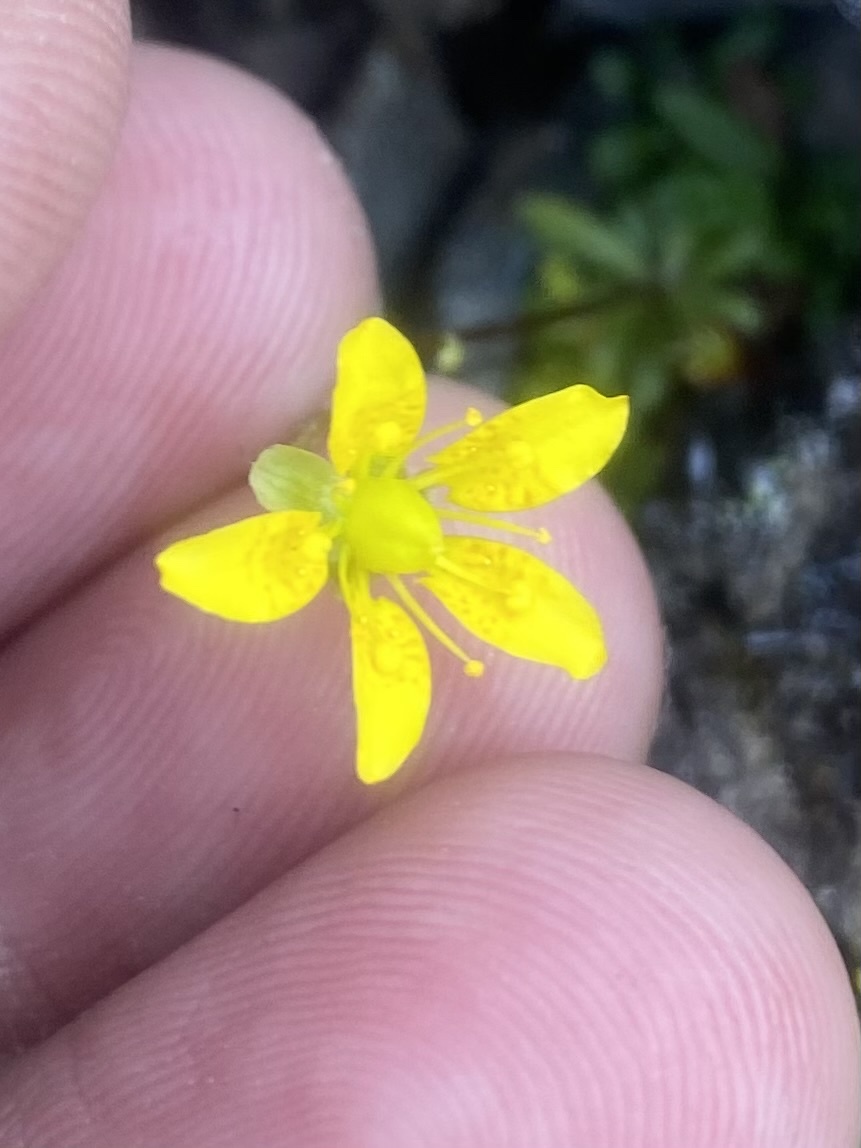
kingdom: Plantae
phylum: Tracheophyta
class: Magnoliopsida
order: Saxifragales
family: Saxifragaceae
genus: Saxifraga
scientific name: Saxifraga serpyllifolia
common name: Thyme-leaved saxifrage
